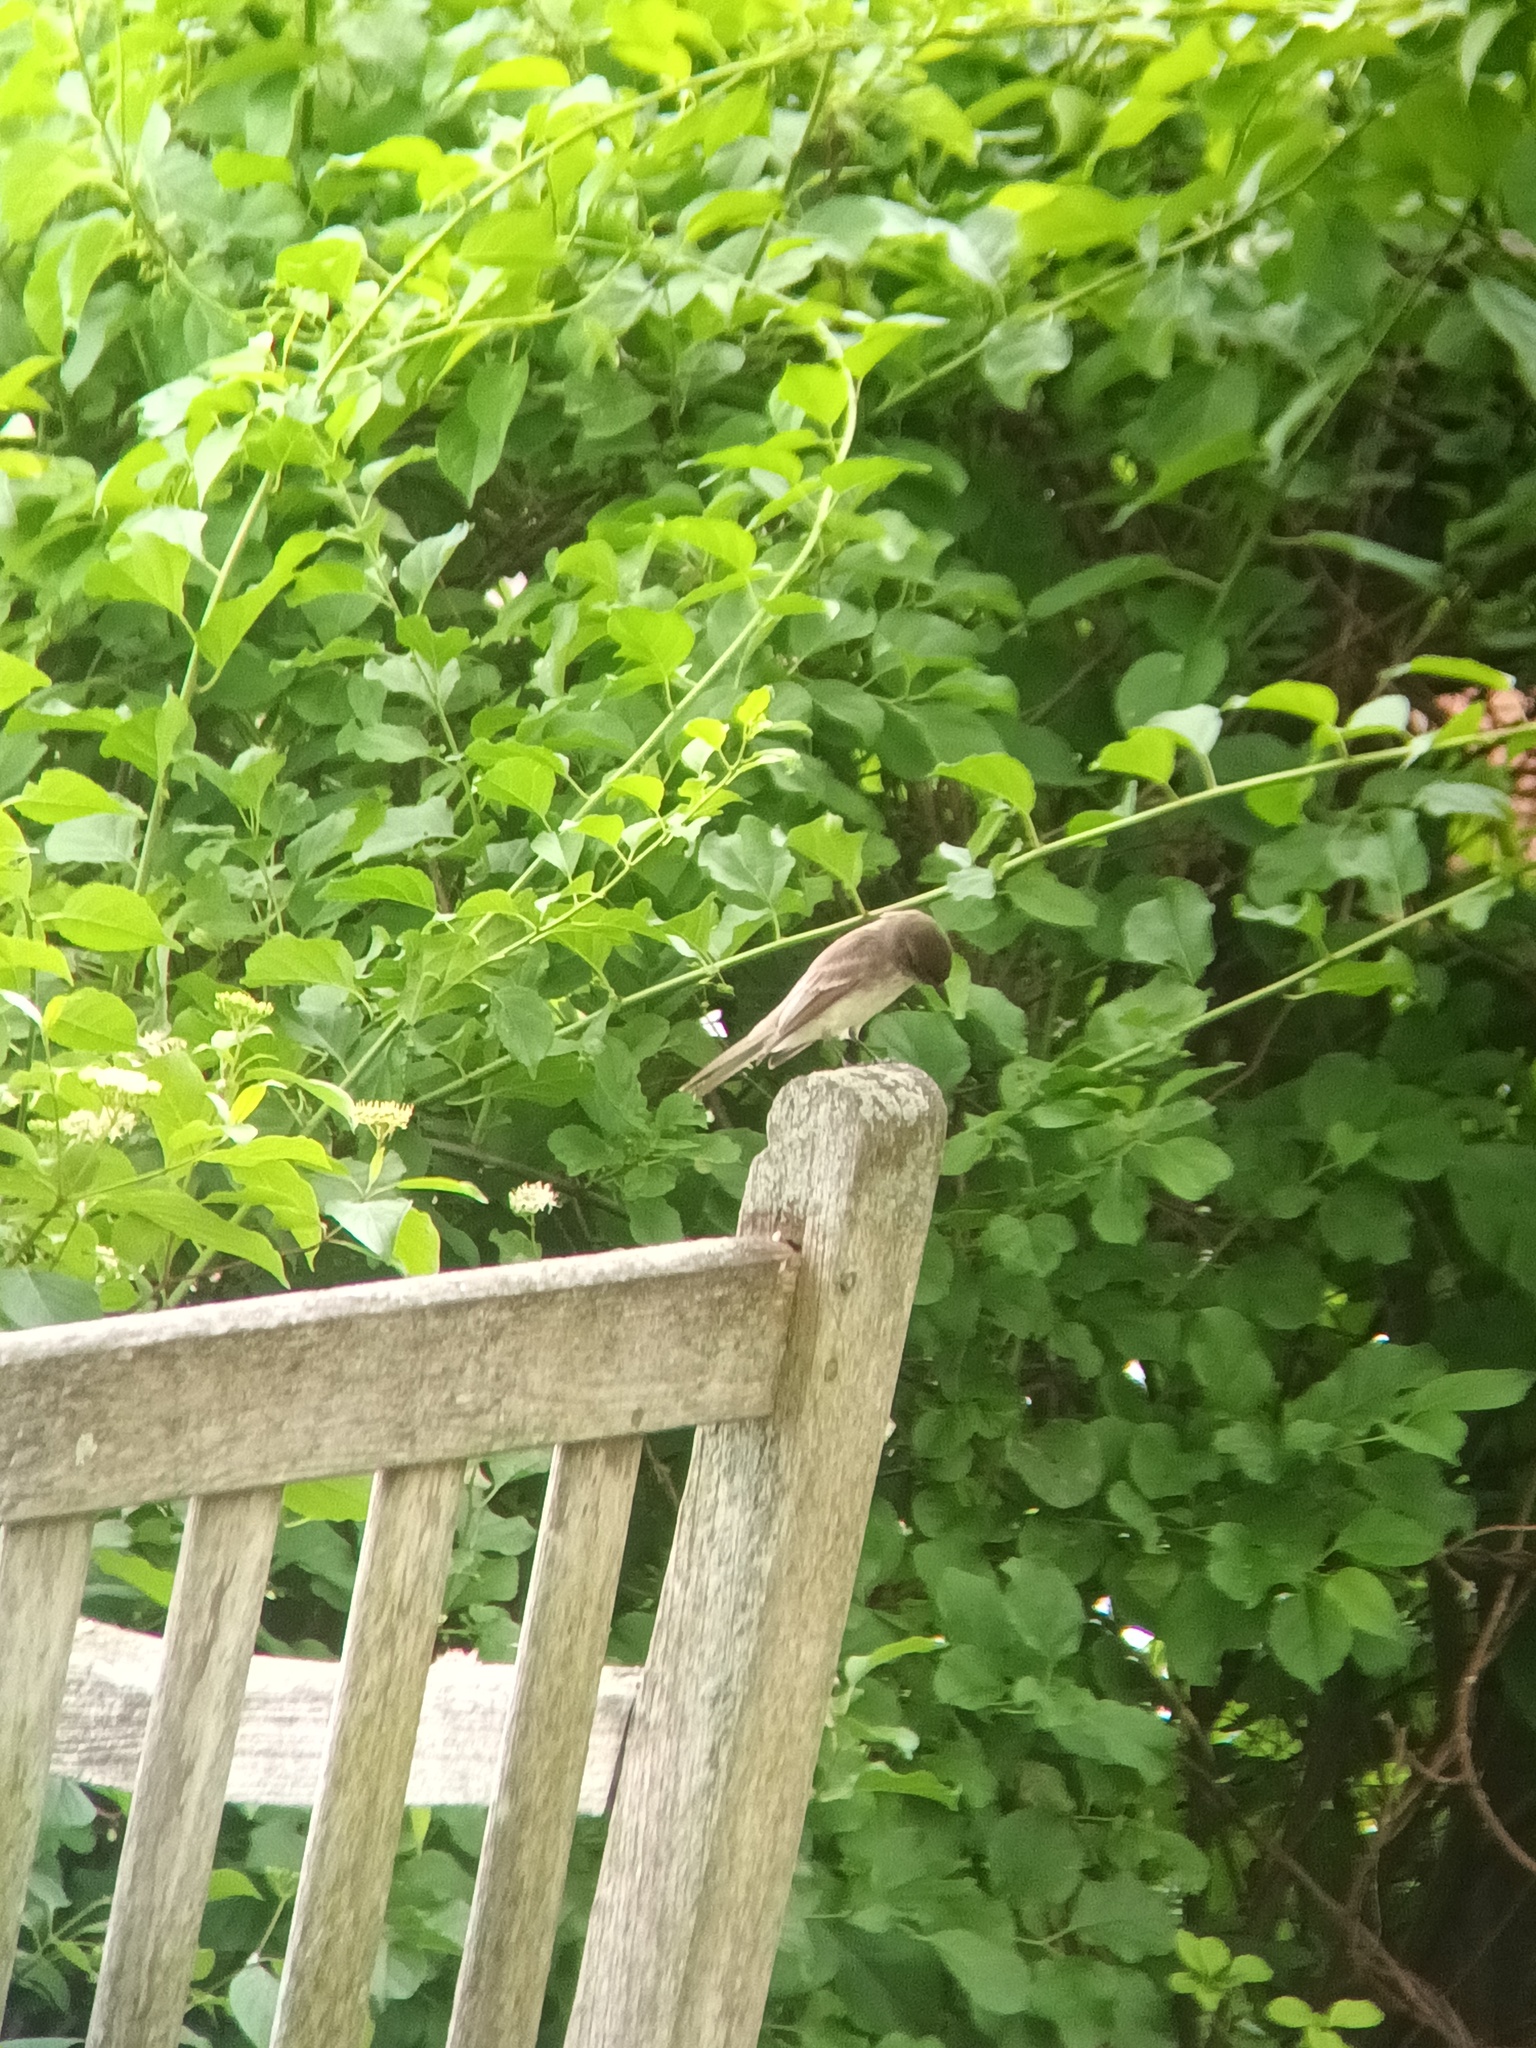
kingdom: Animalia
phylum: Chordata
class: Aves
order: Passeriformes
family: Tyrannidae
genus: Sayornis
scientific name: Sayornis phoebe
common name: Eastern phoebe
